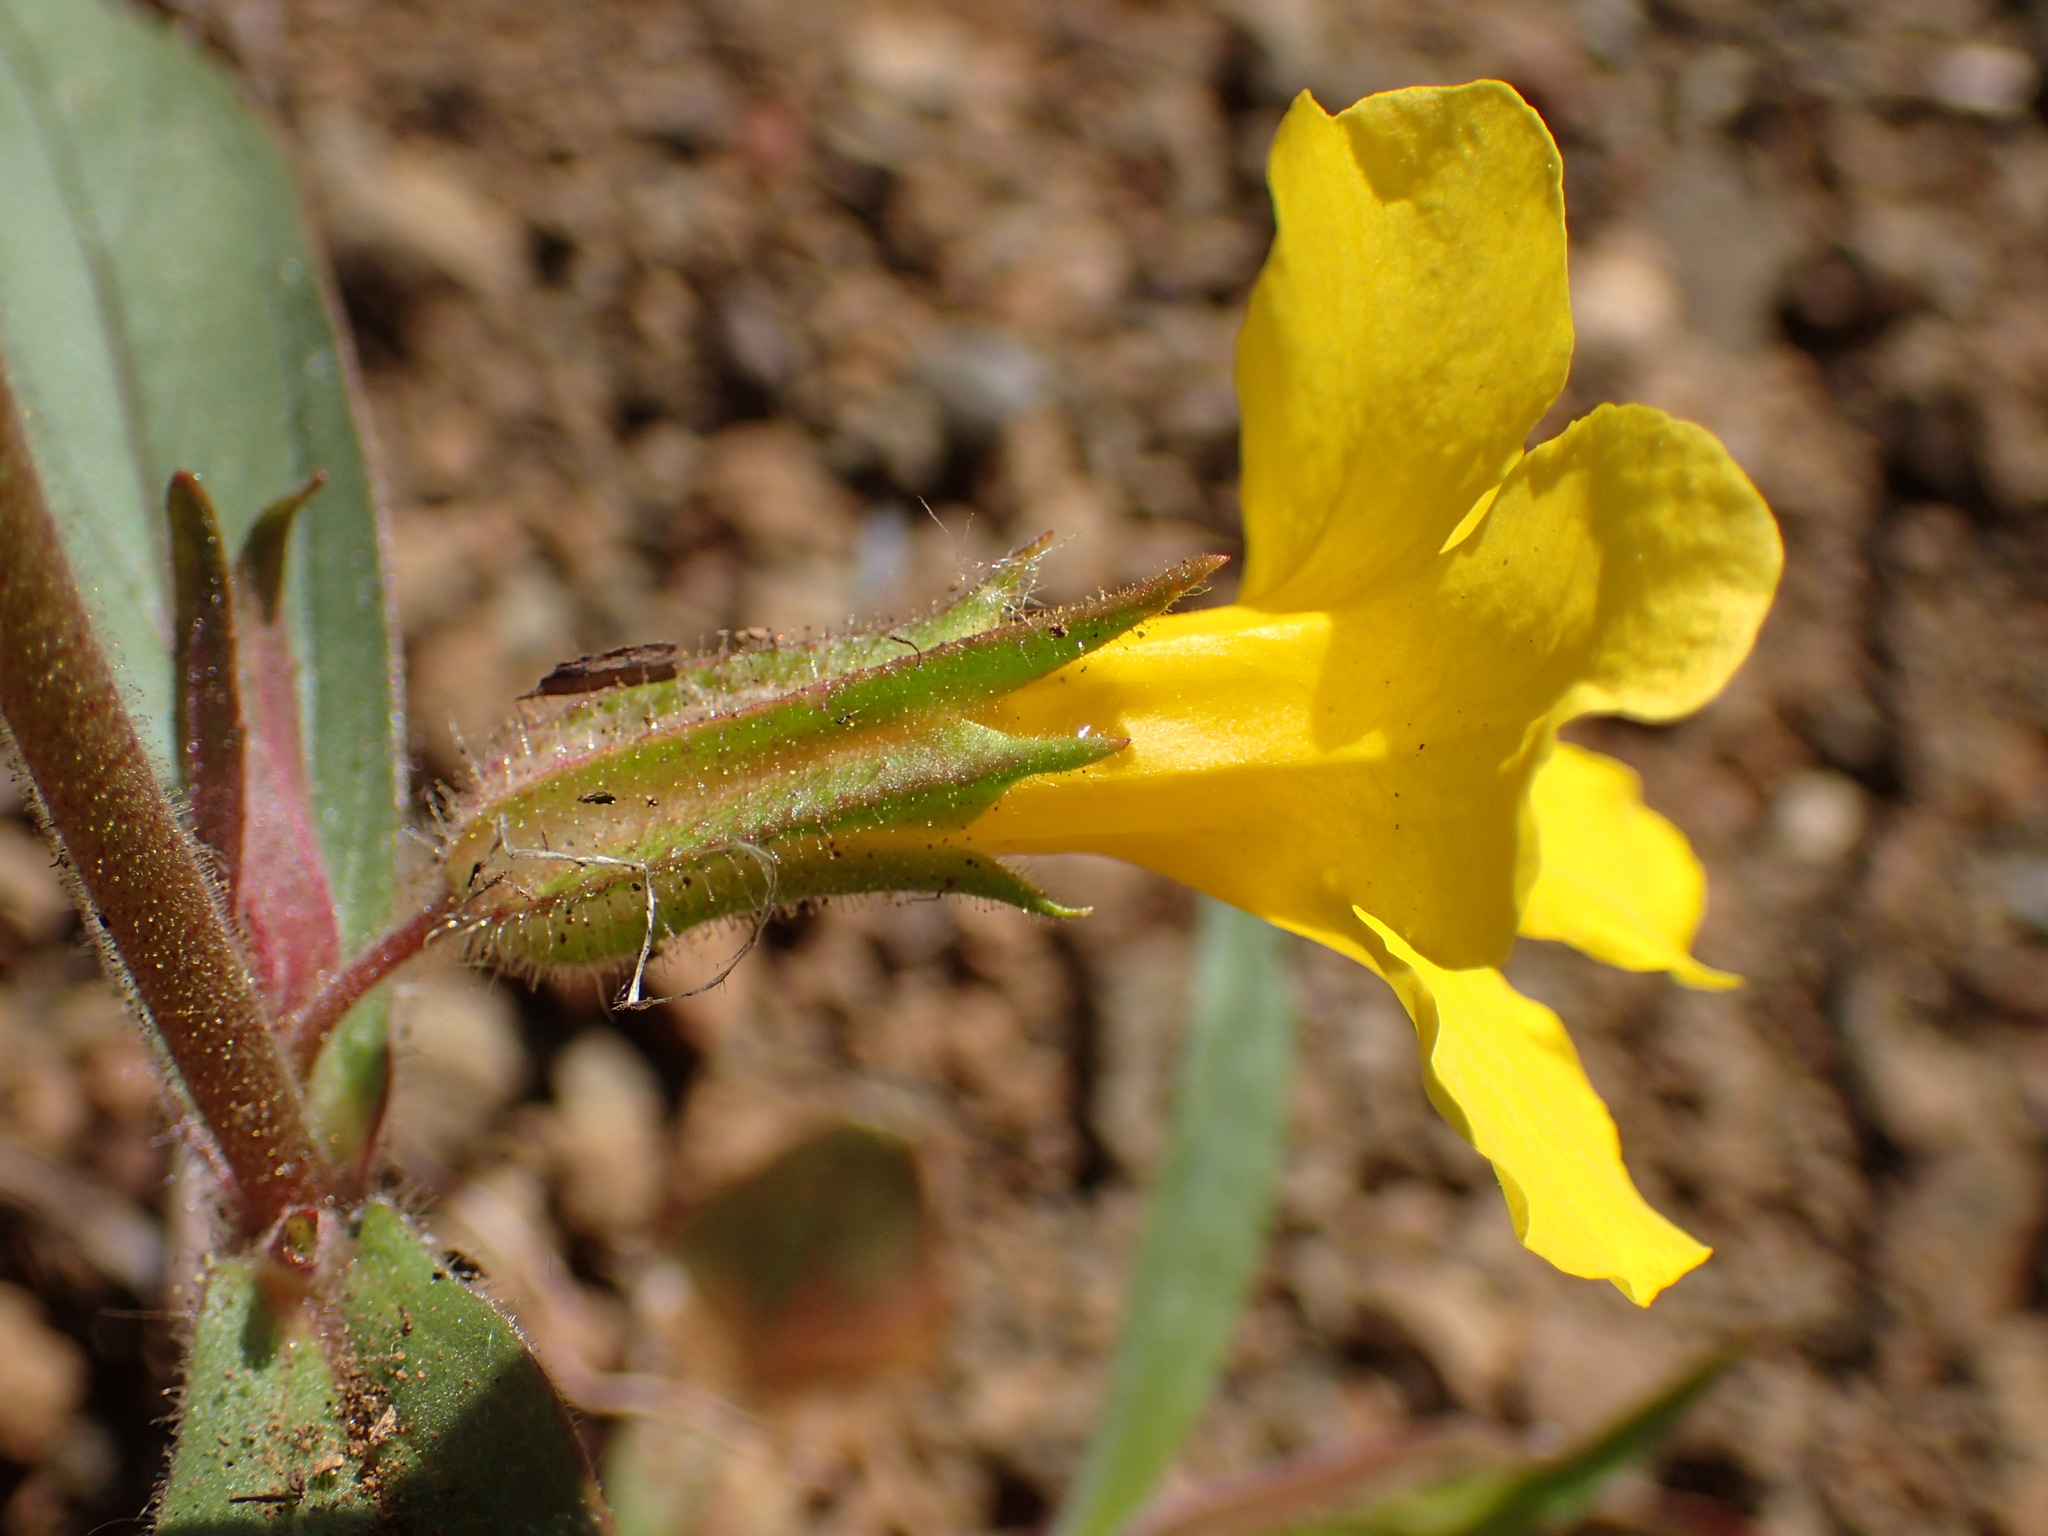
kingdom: Plantae
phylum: Tracheophyta
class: Magnoliopsida
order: Lamiales
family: Phrymaceae
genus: Diplacus
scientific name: Diplacus brevipes
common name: Wide-throat yellow monkey-flower
